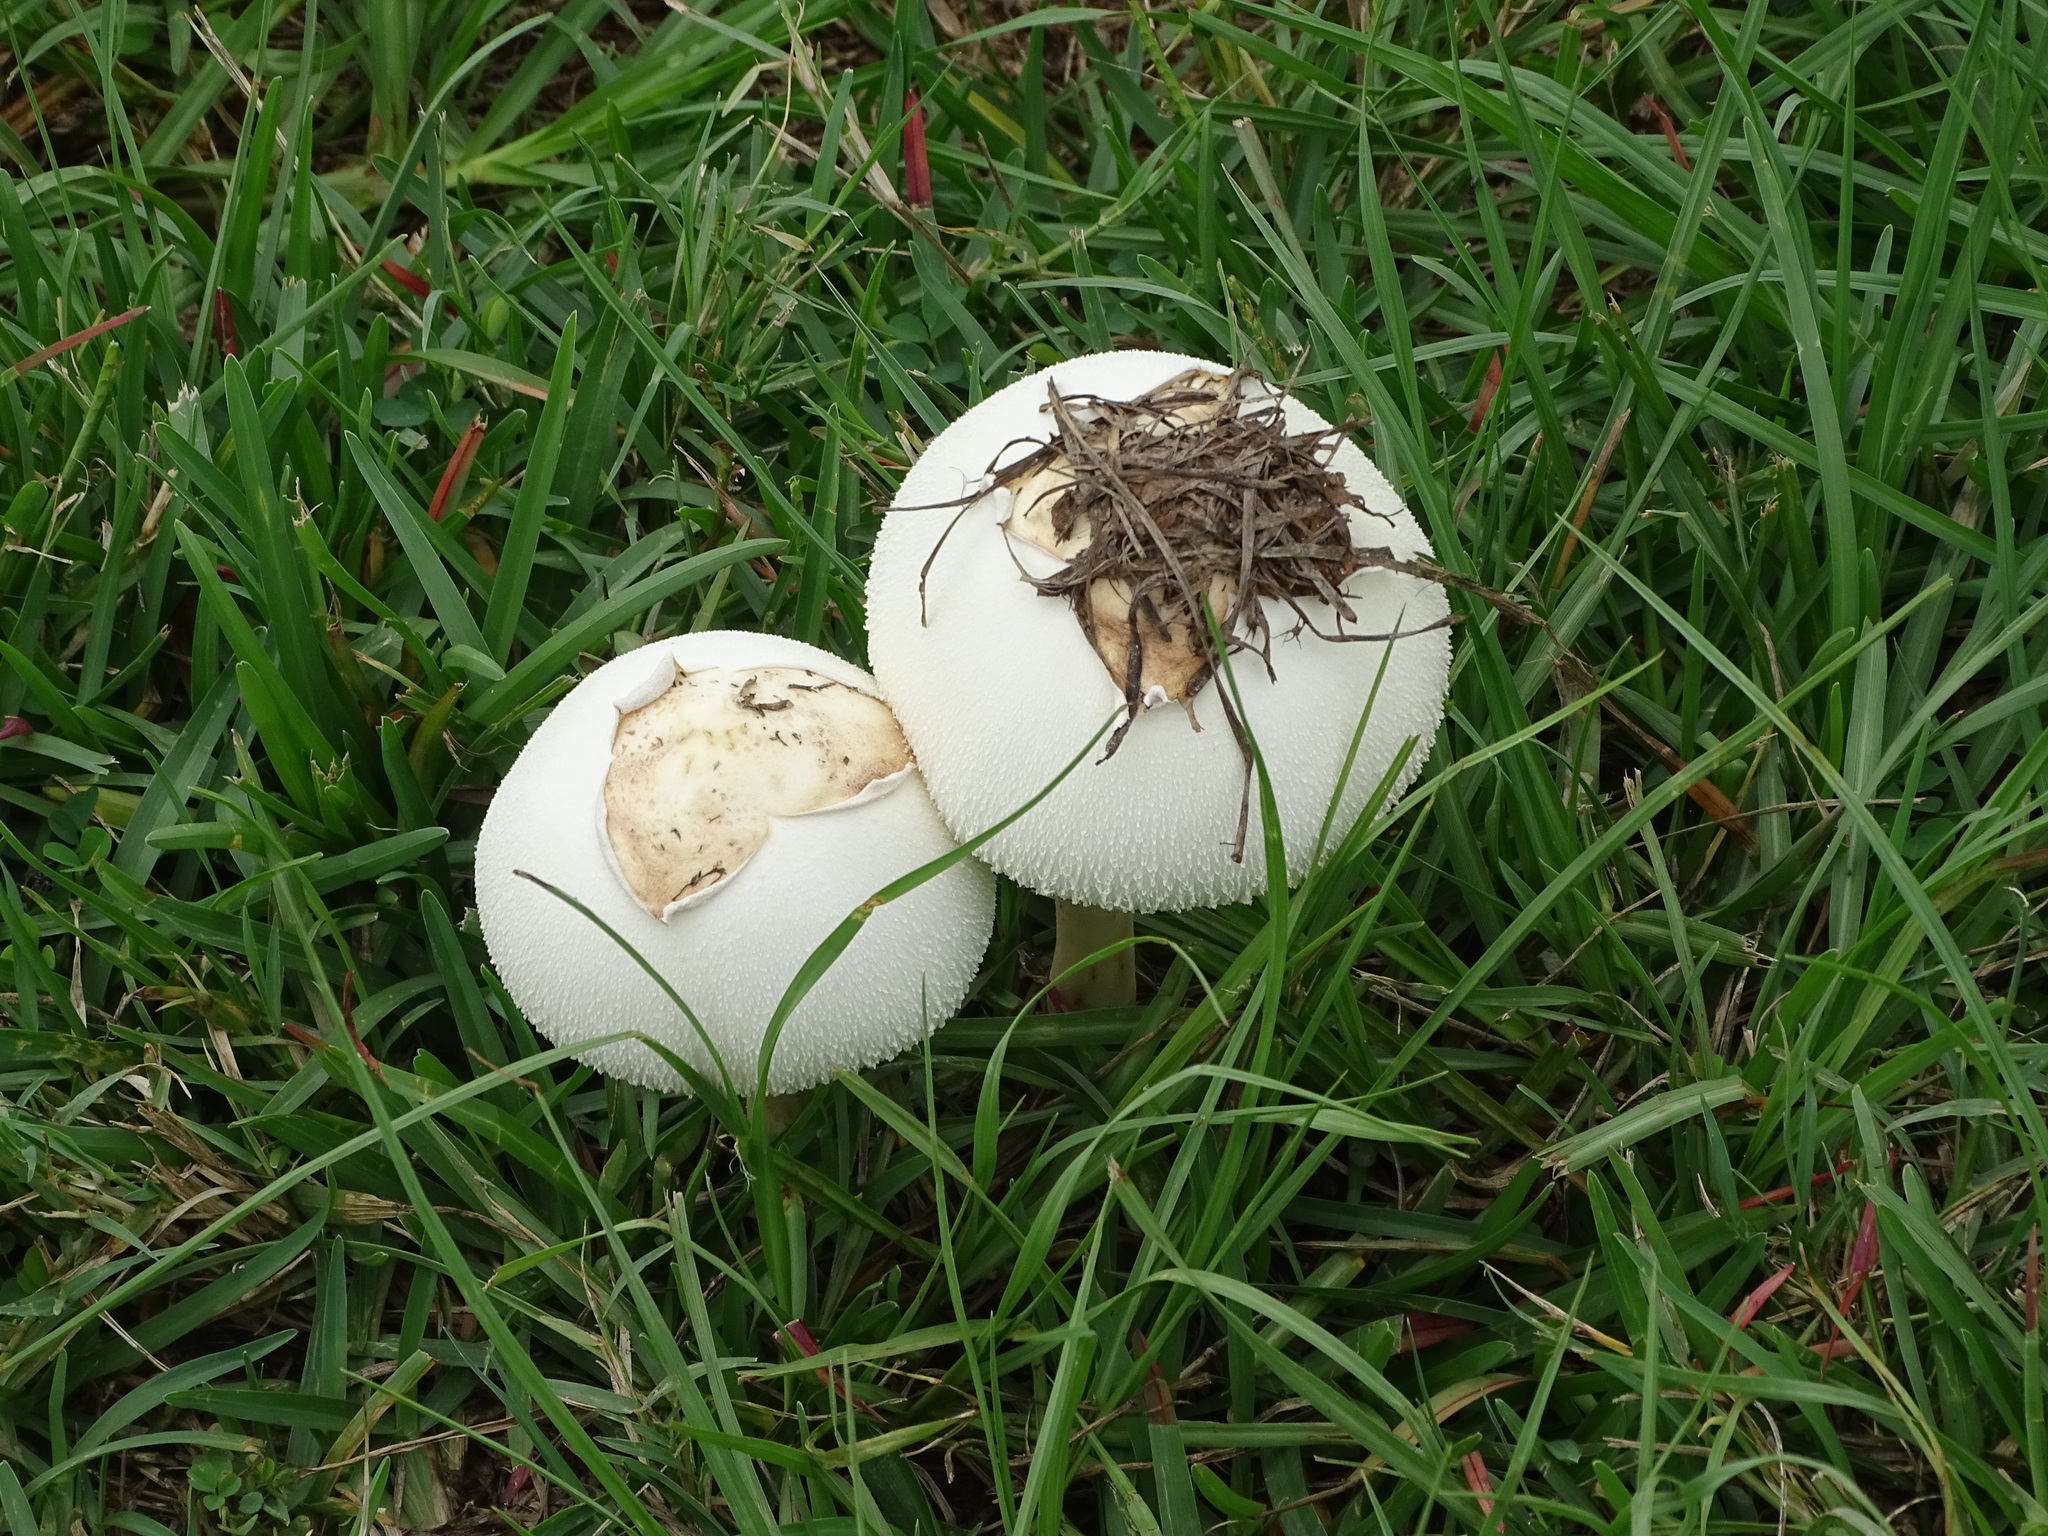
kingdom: Fungi
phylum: Basidiomycota
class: Agaricomycetes
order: Agaricales
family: Agaricaceae
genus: Chlorophyllum
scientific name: Chlorophyllum molybdites
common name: False parasol
